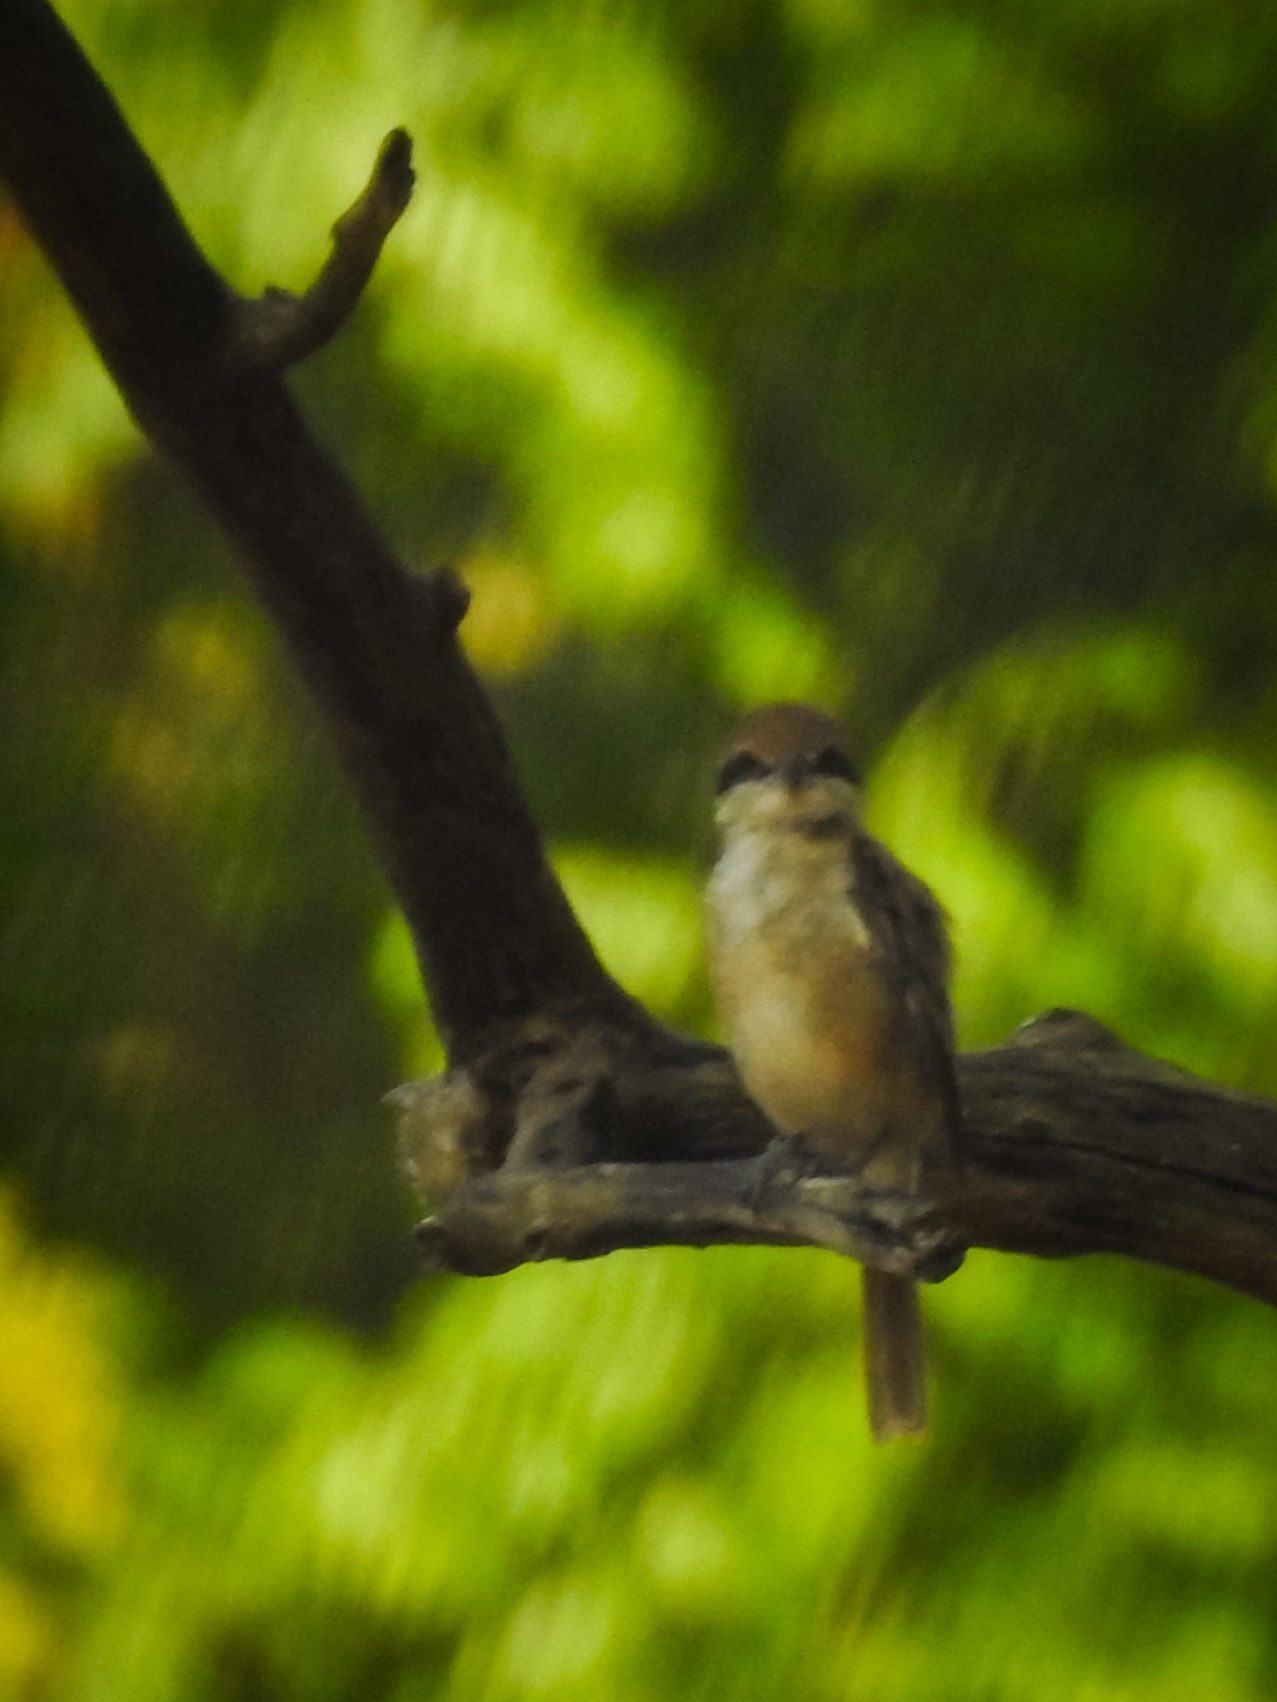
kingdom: Animalia
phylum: Chordata
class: Aves
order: Passeriformes
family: Laniidae
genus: Lanius
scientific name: Lanius cristatus
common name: Brown shrike
